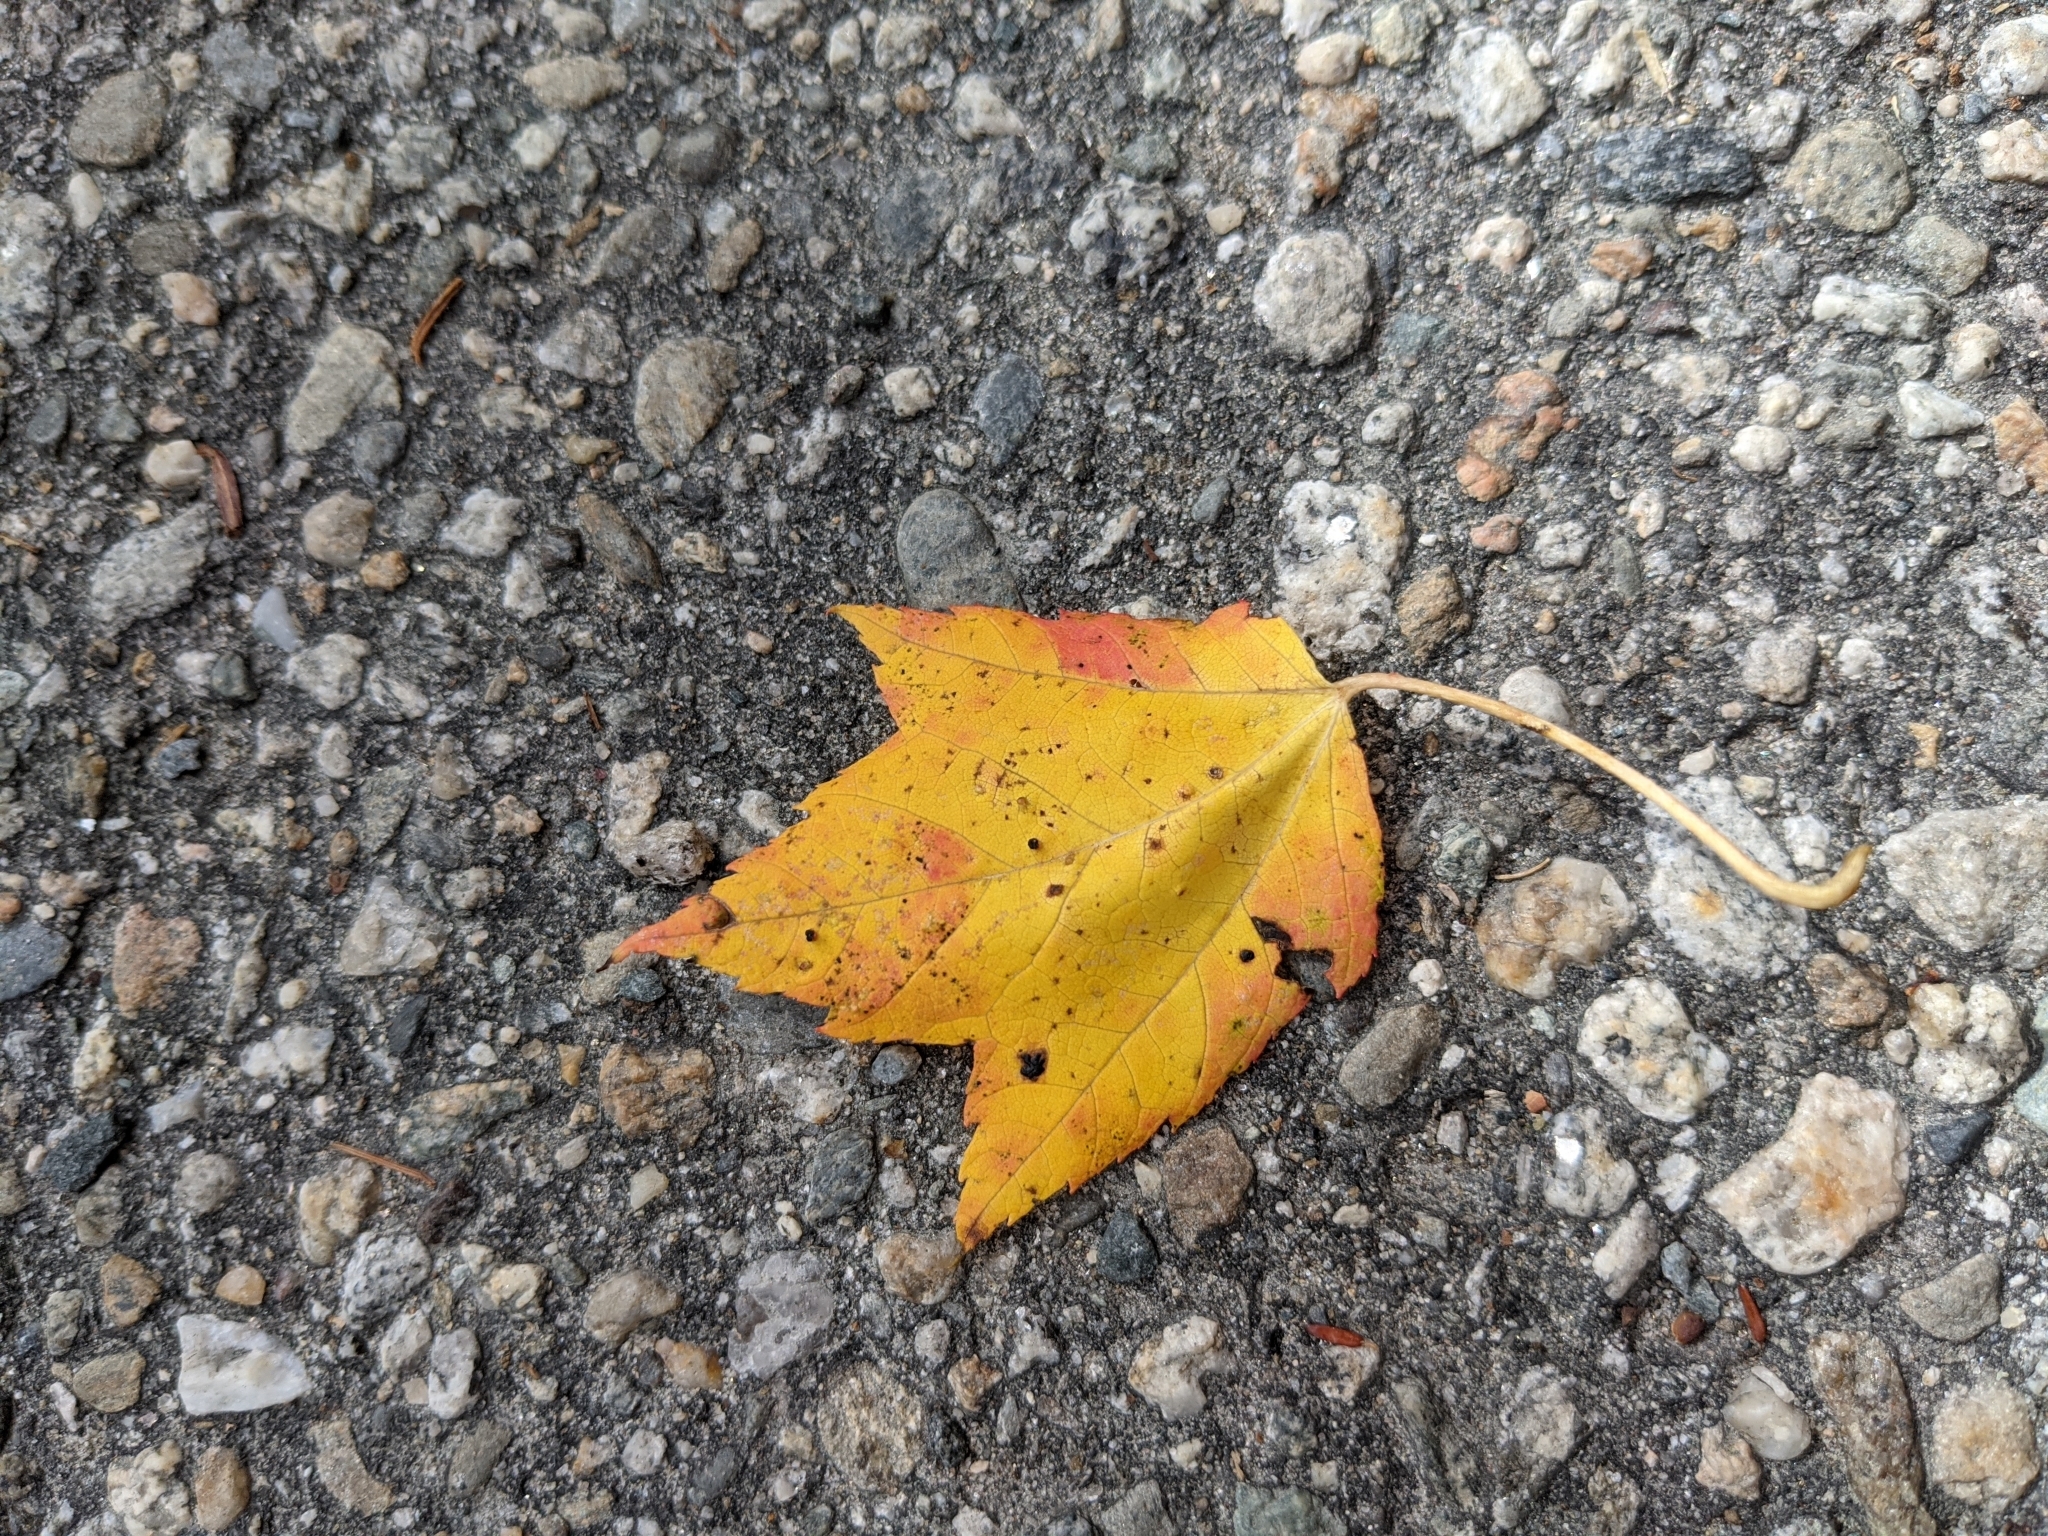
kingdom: Plantae
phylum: Tracheophyta
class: Magnoliopsida
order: Sapindales
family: Sapindaceae
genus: Acer
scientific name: Acer rubrum
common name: Red maple
